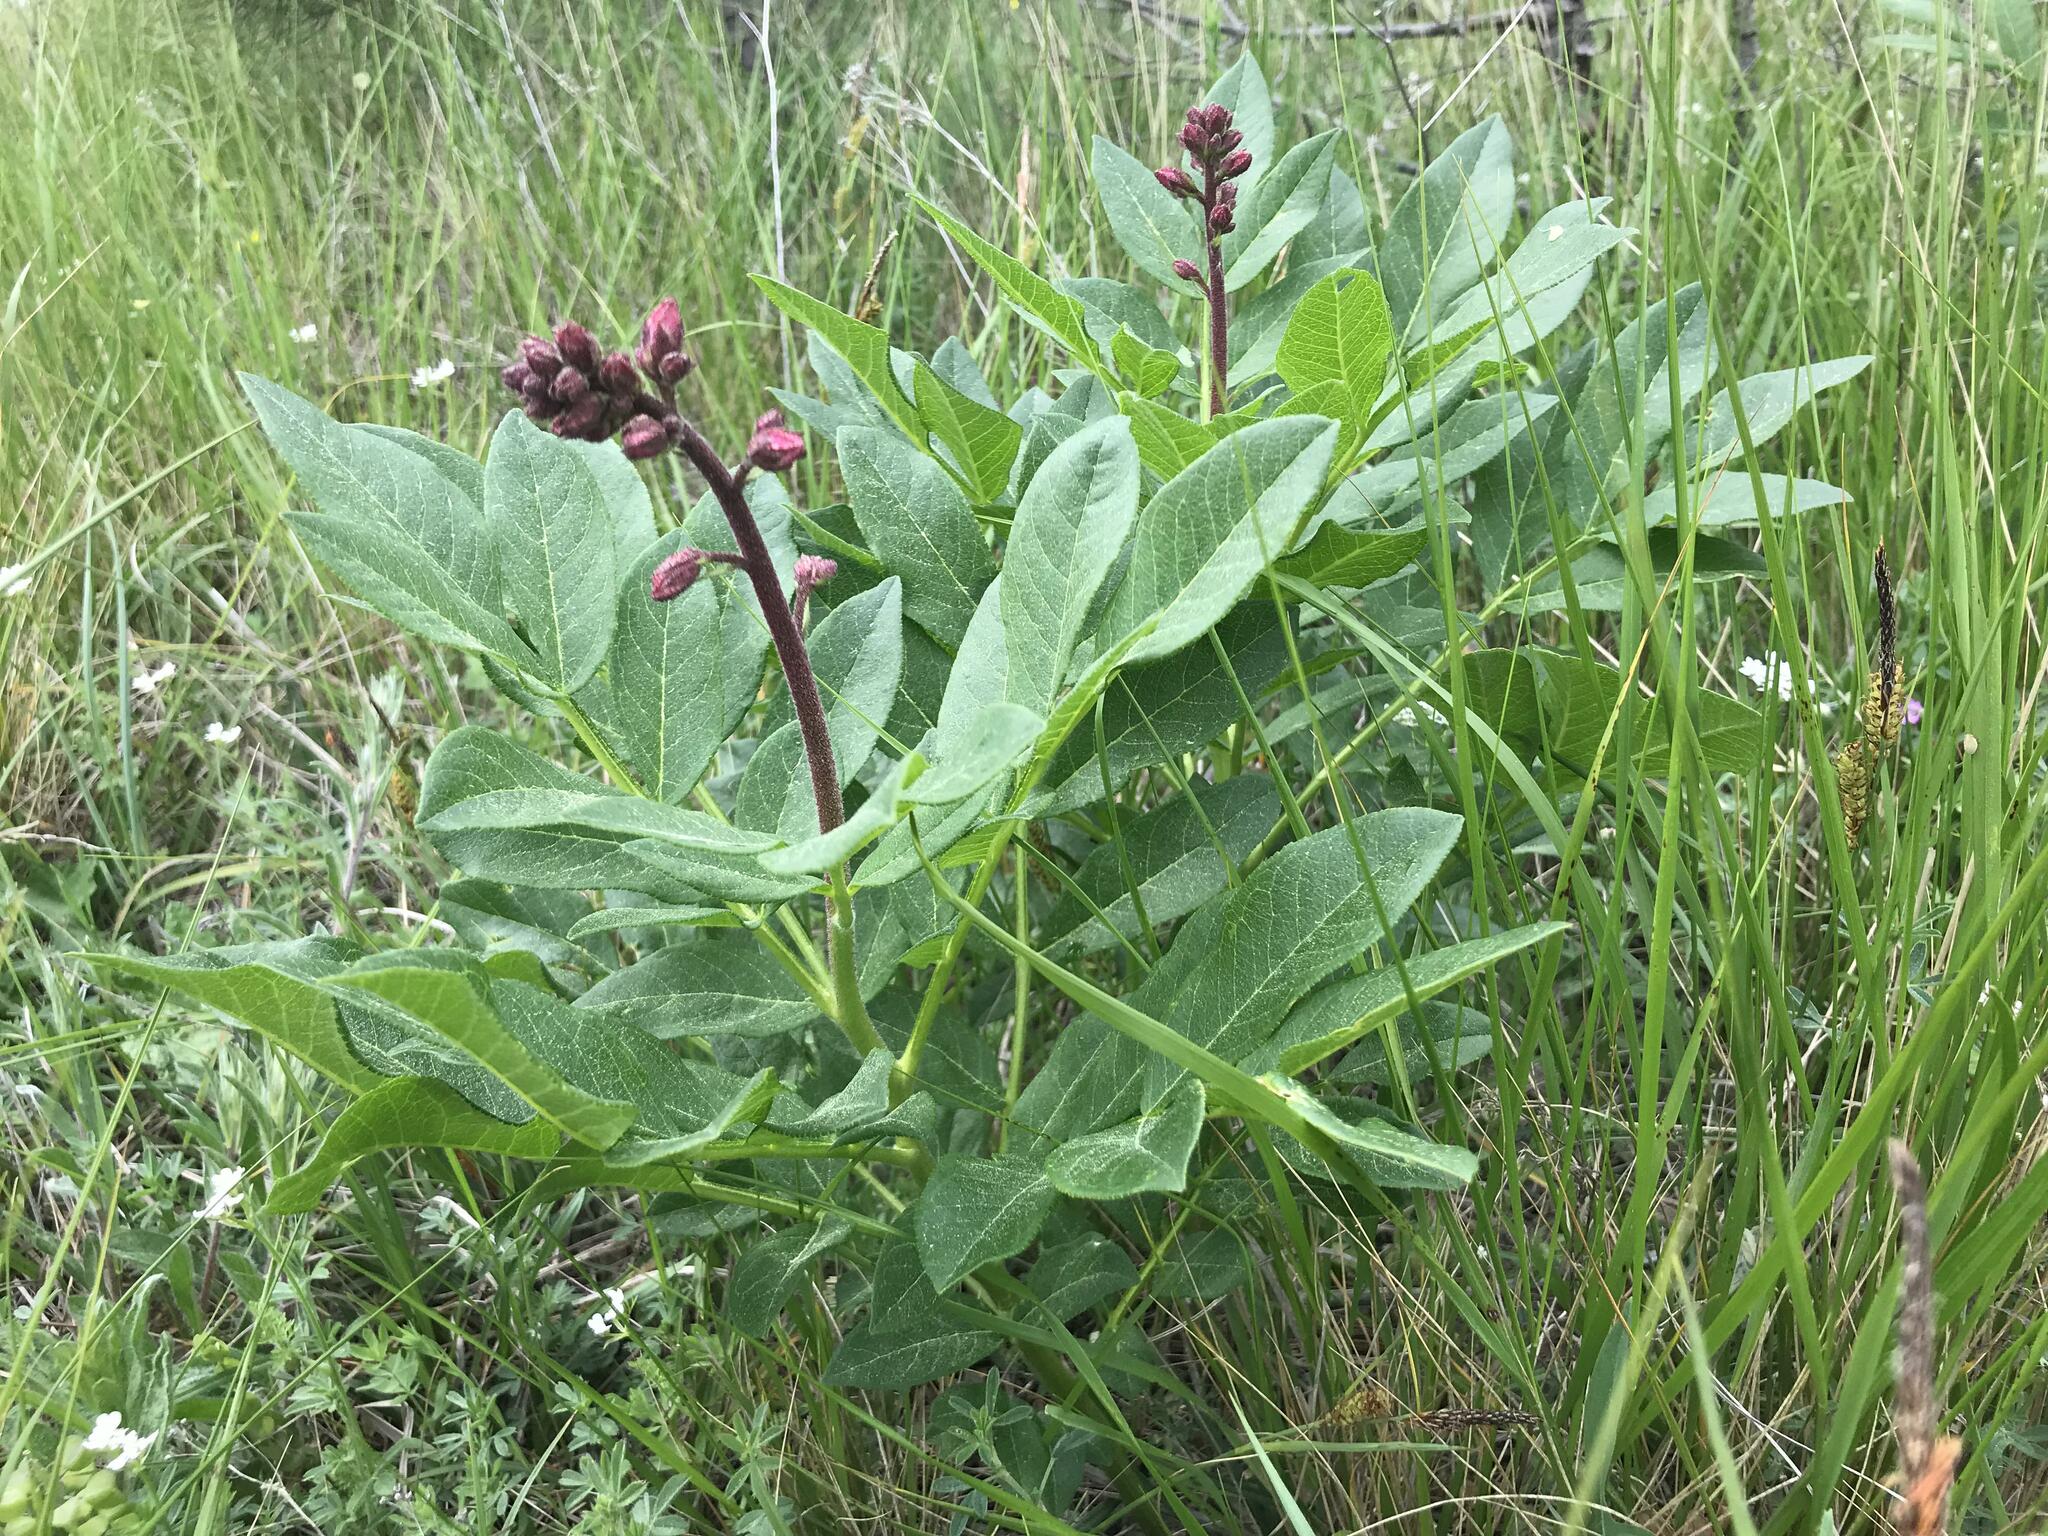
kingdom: Plantae
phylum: Tracheophyta
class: Magnoliopsida
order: Sapindales
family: Rutaceae
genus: Dictamnus
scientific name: Dictamnus albus
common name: Gasplant
